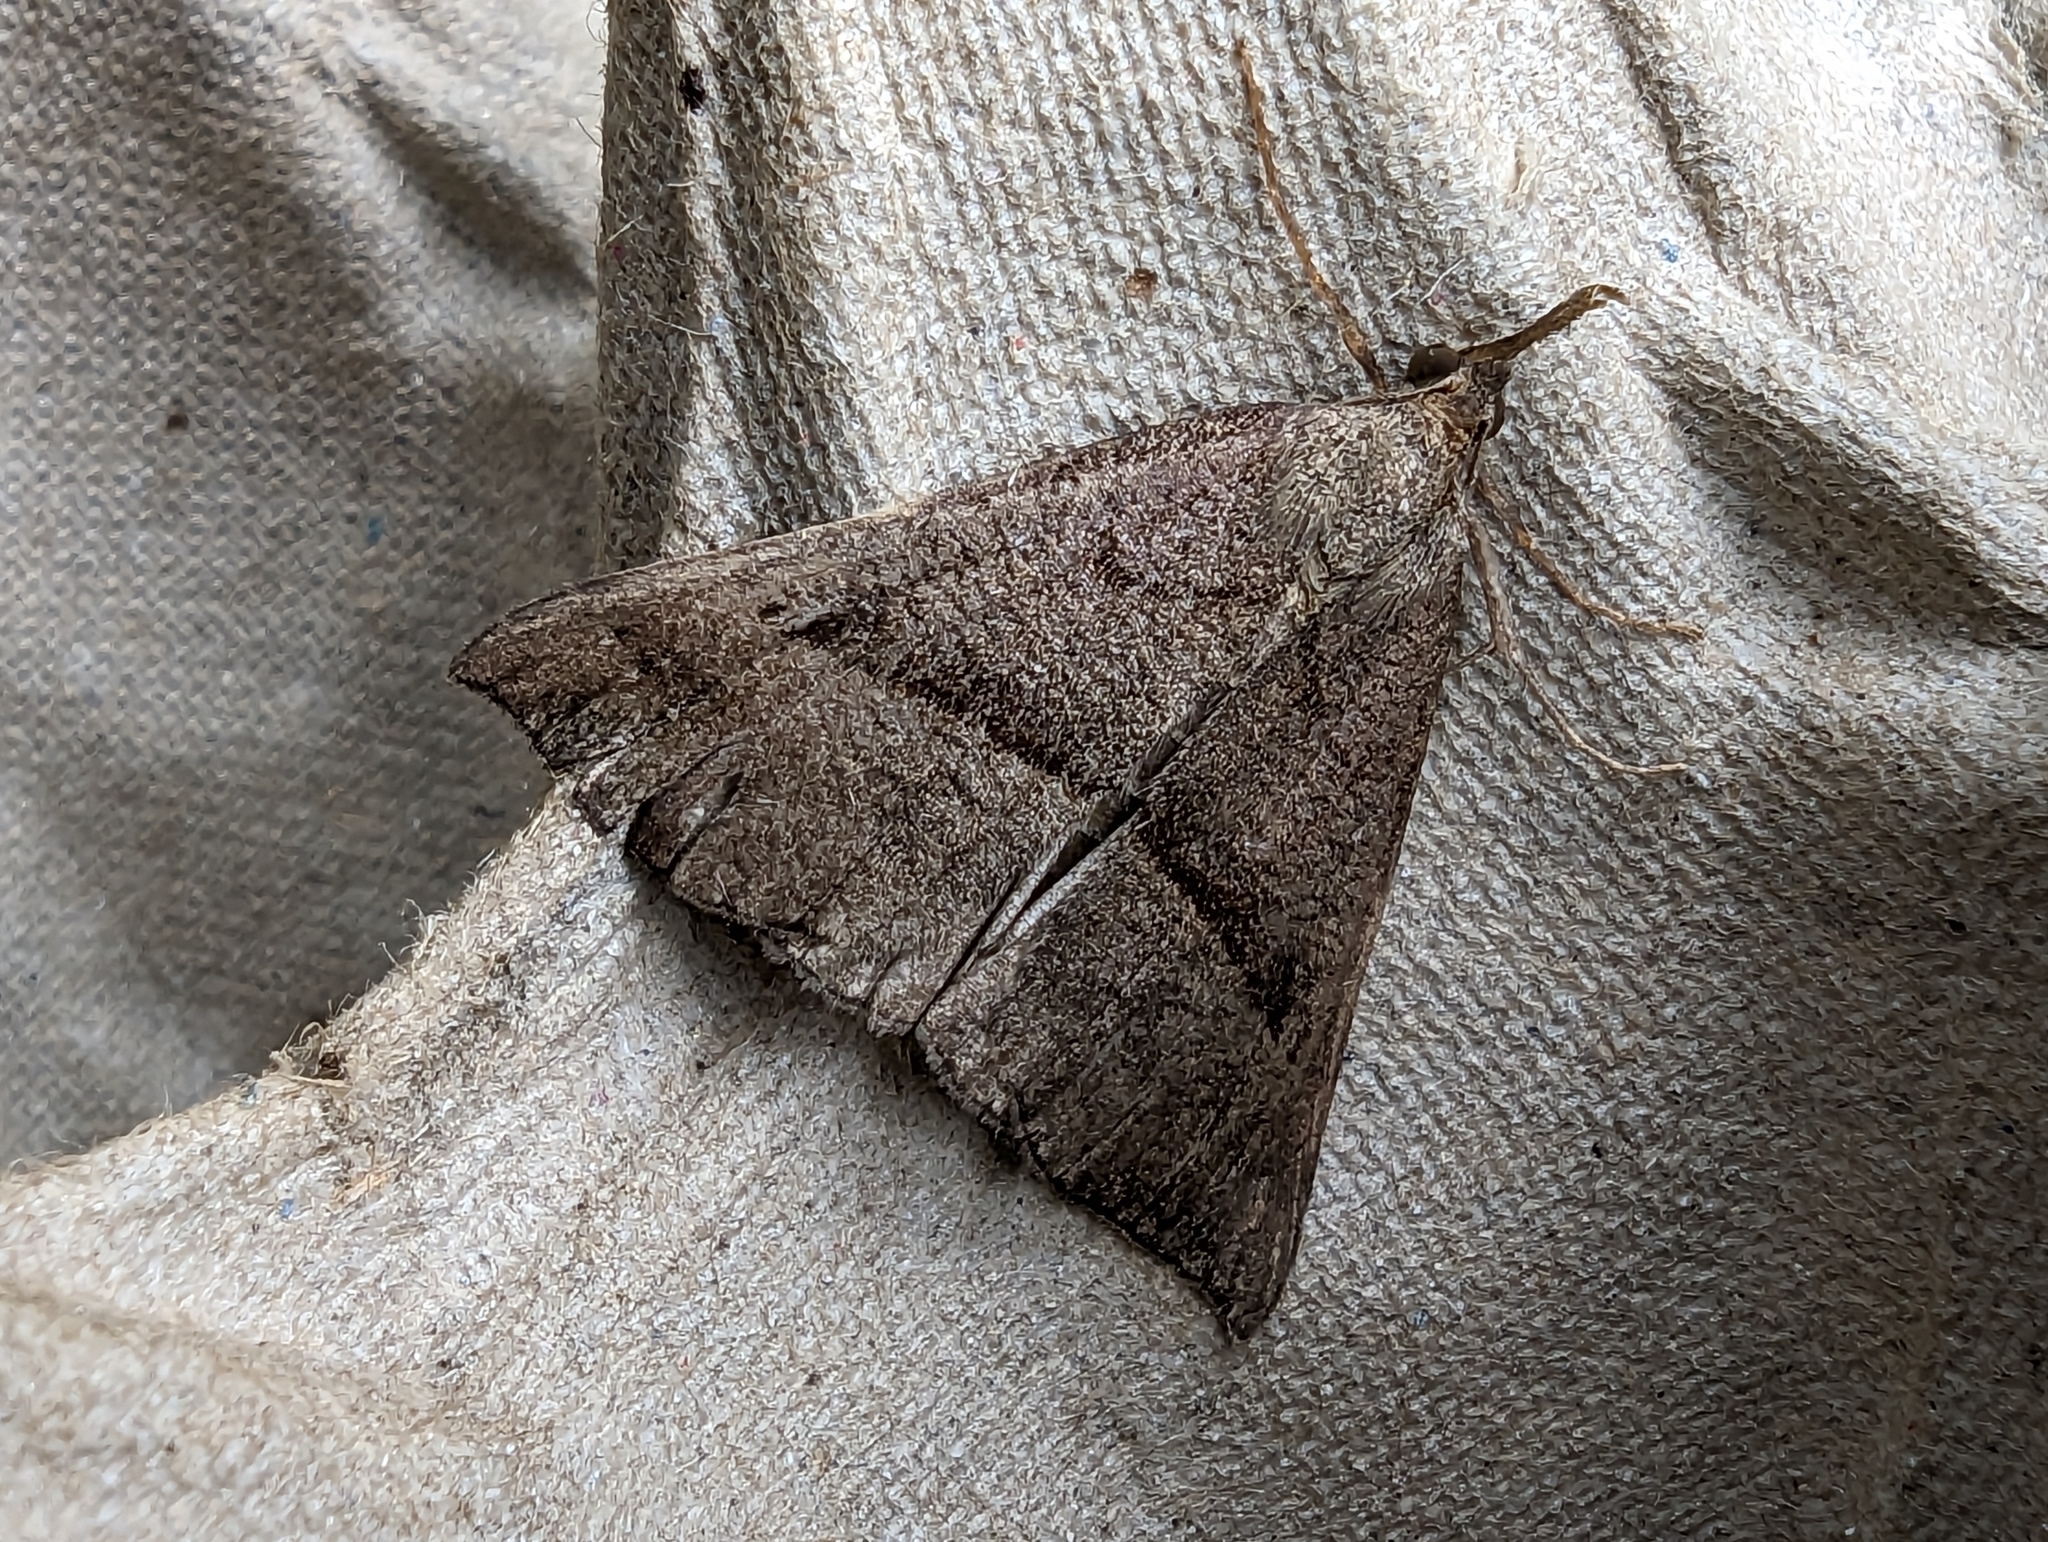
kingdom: Animalia
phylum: Arthropoda
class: Insecta
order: Lepidoptera
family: Erebidae
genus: Hypena
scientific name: Hypena proboscidalis
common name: Snout
